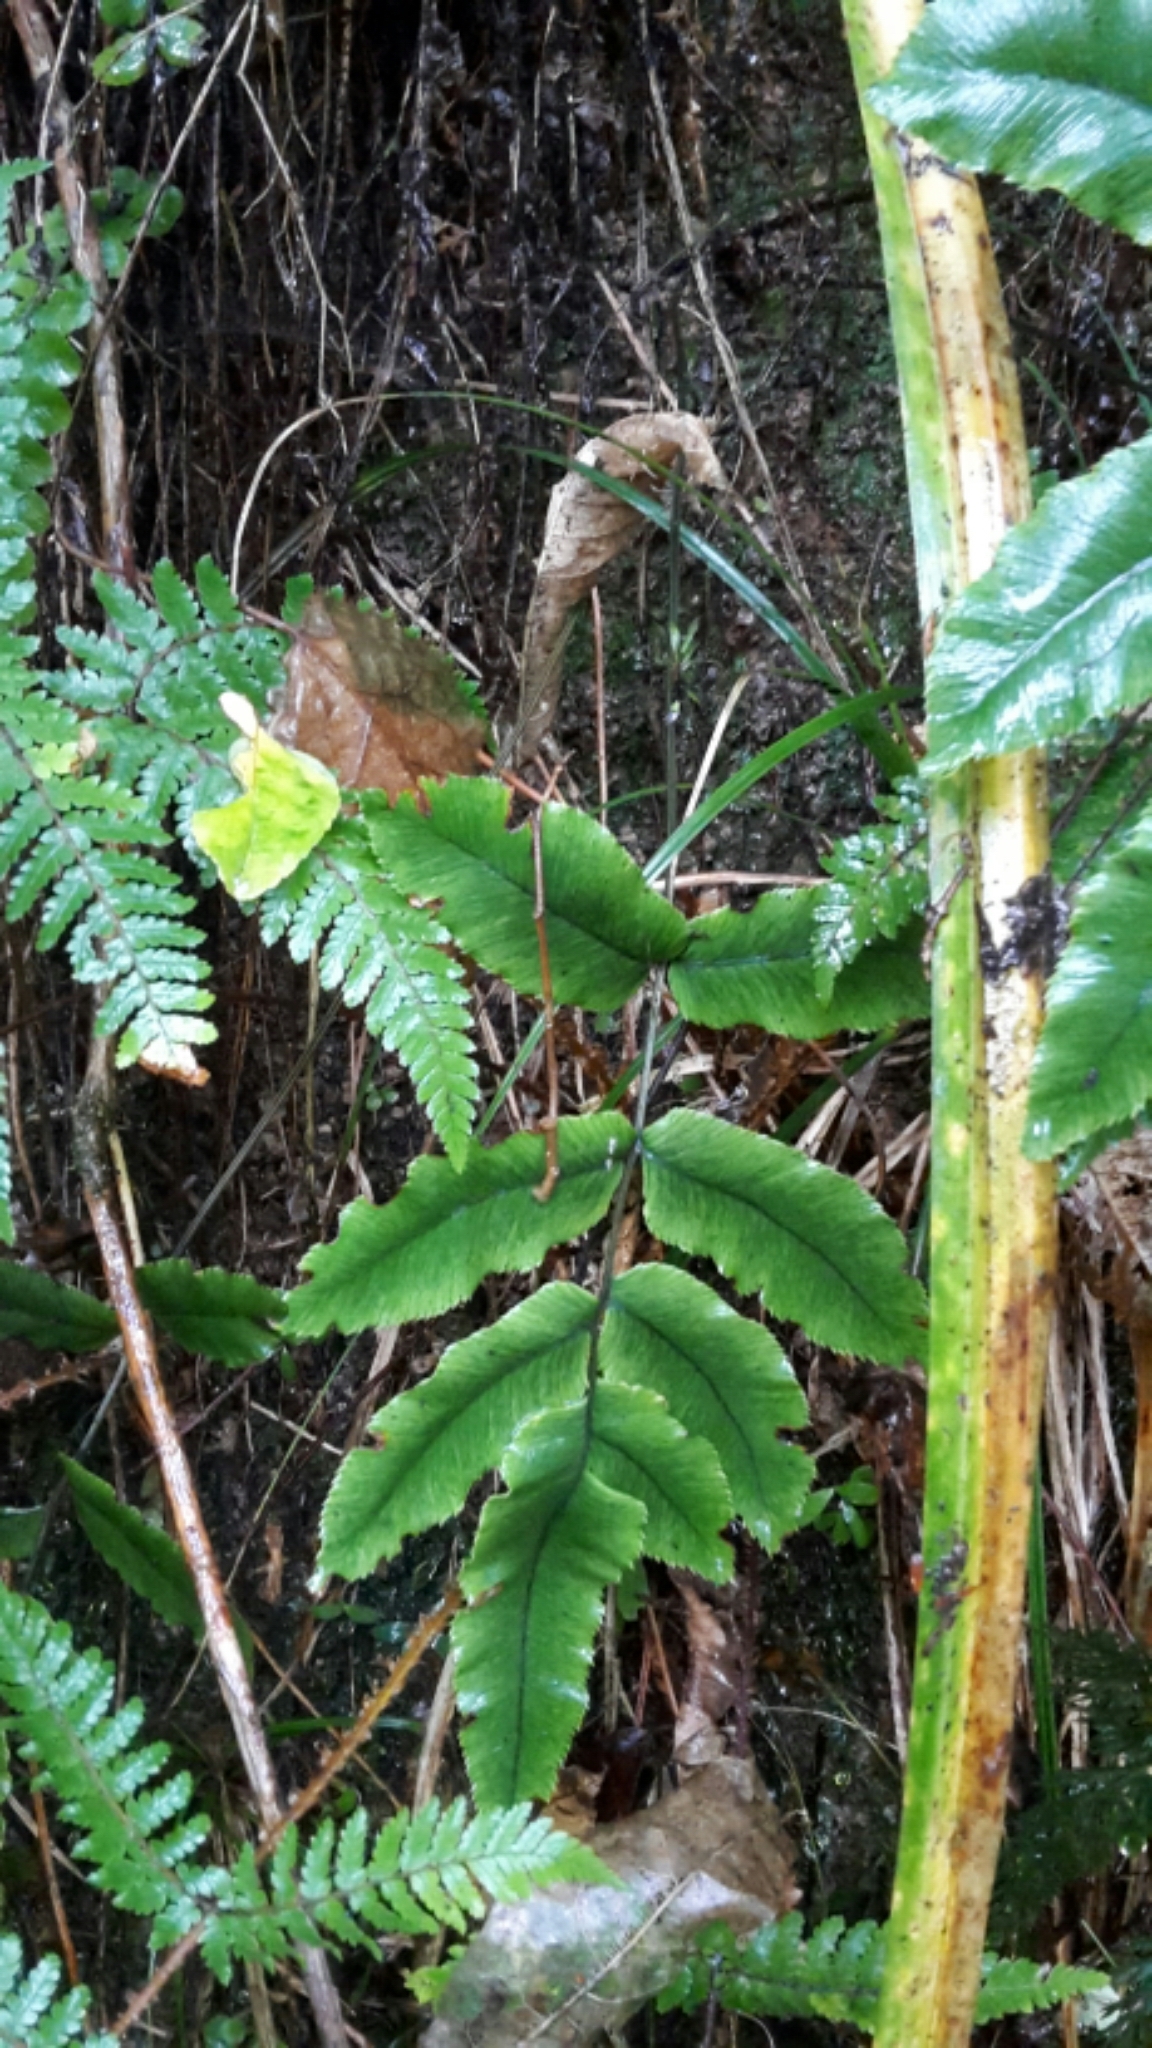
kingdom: Plantae
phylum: Tracheophyta
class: Polypodiopsida
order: Polypodiales
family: Blechnaceae
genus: Parablechnum
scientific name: Parablechnum procerum
